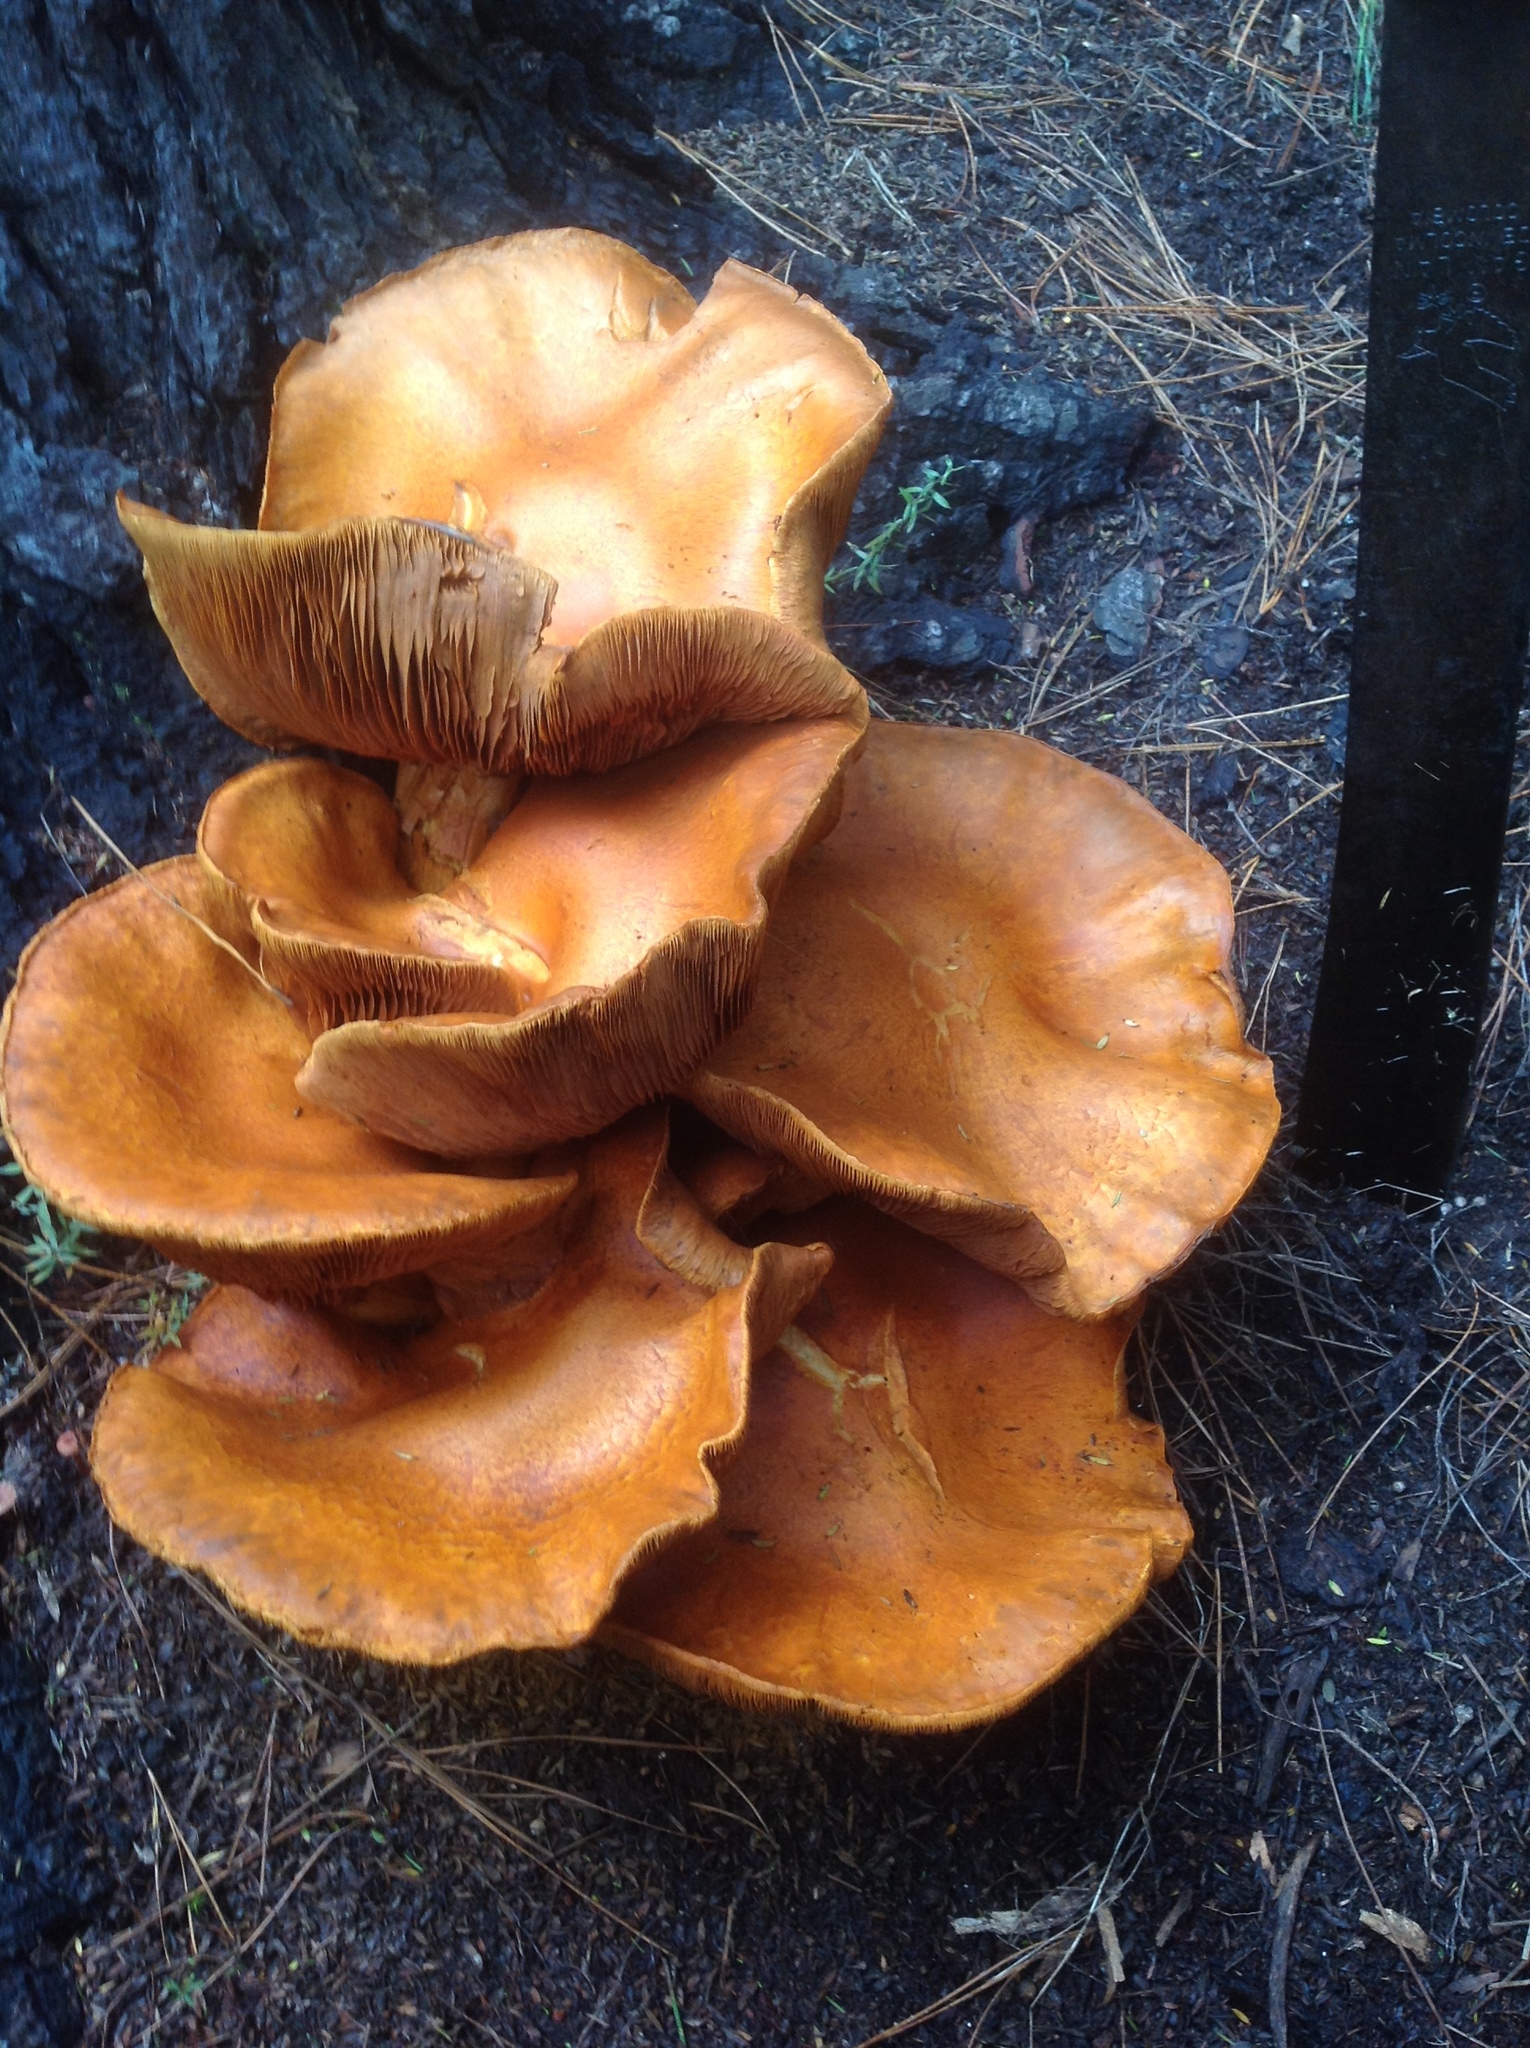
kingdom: Fungi
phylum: Basidiomycota
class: Agaricomycetes
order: Agaricales
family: Hymenogastraceae
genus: Gymnopilus
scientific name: Gymnopilus junonius
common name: Spectacular rustgill
